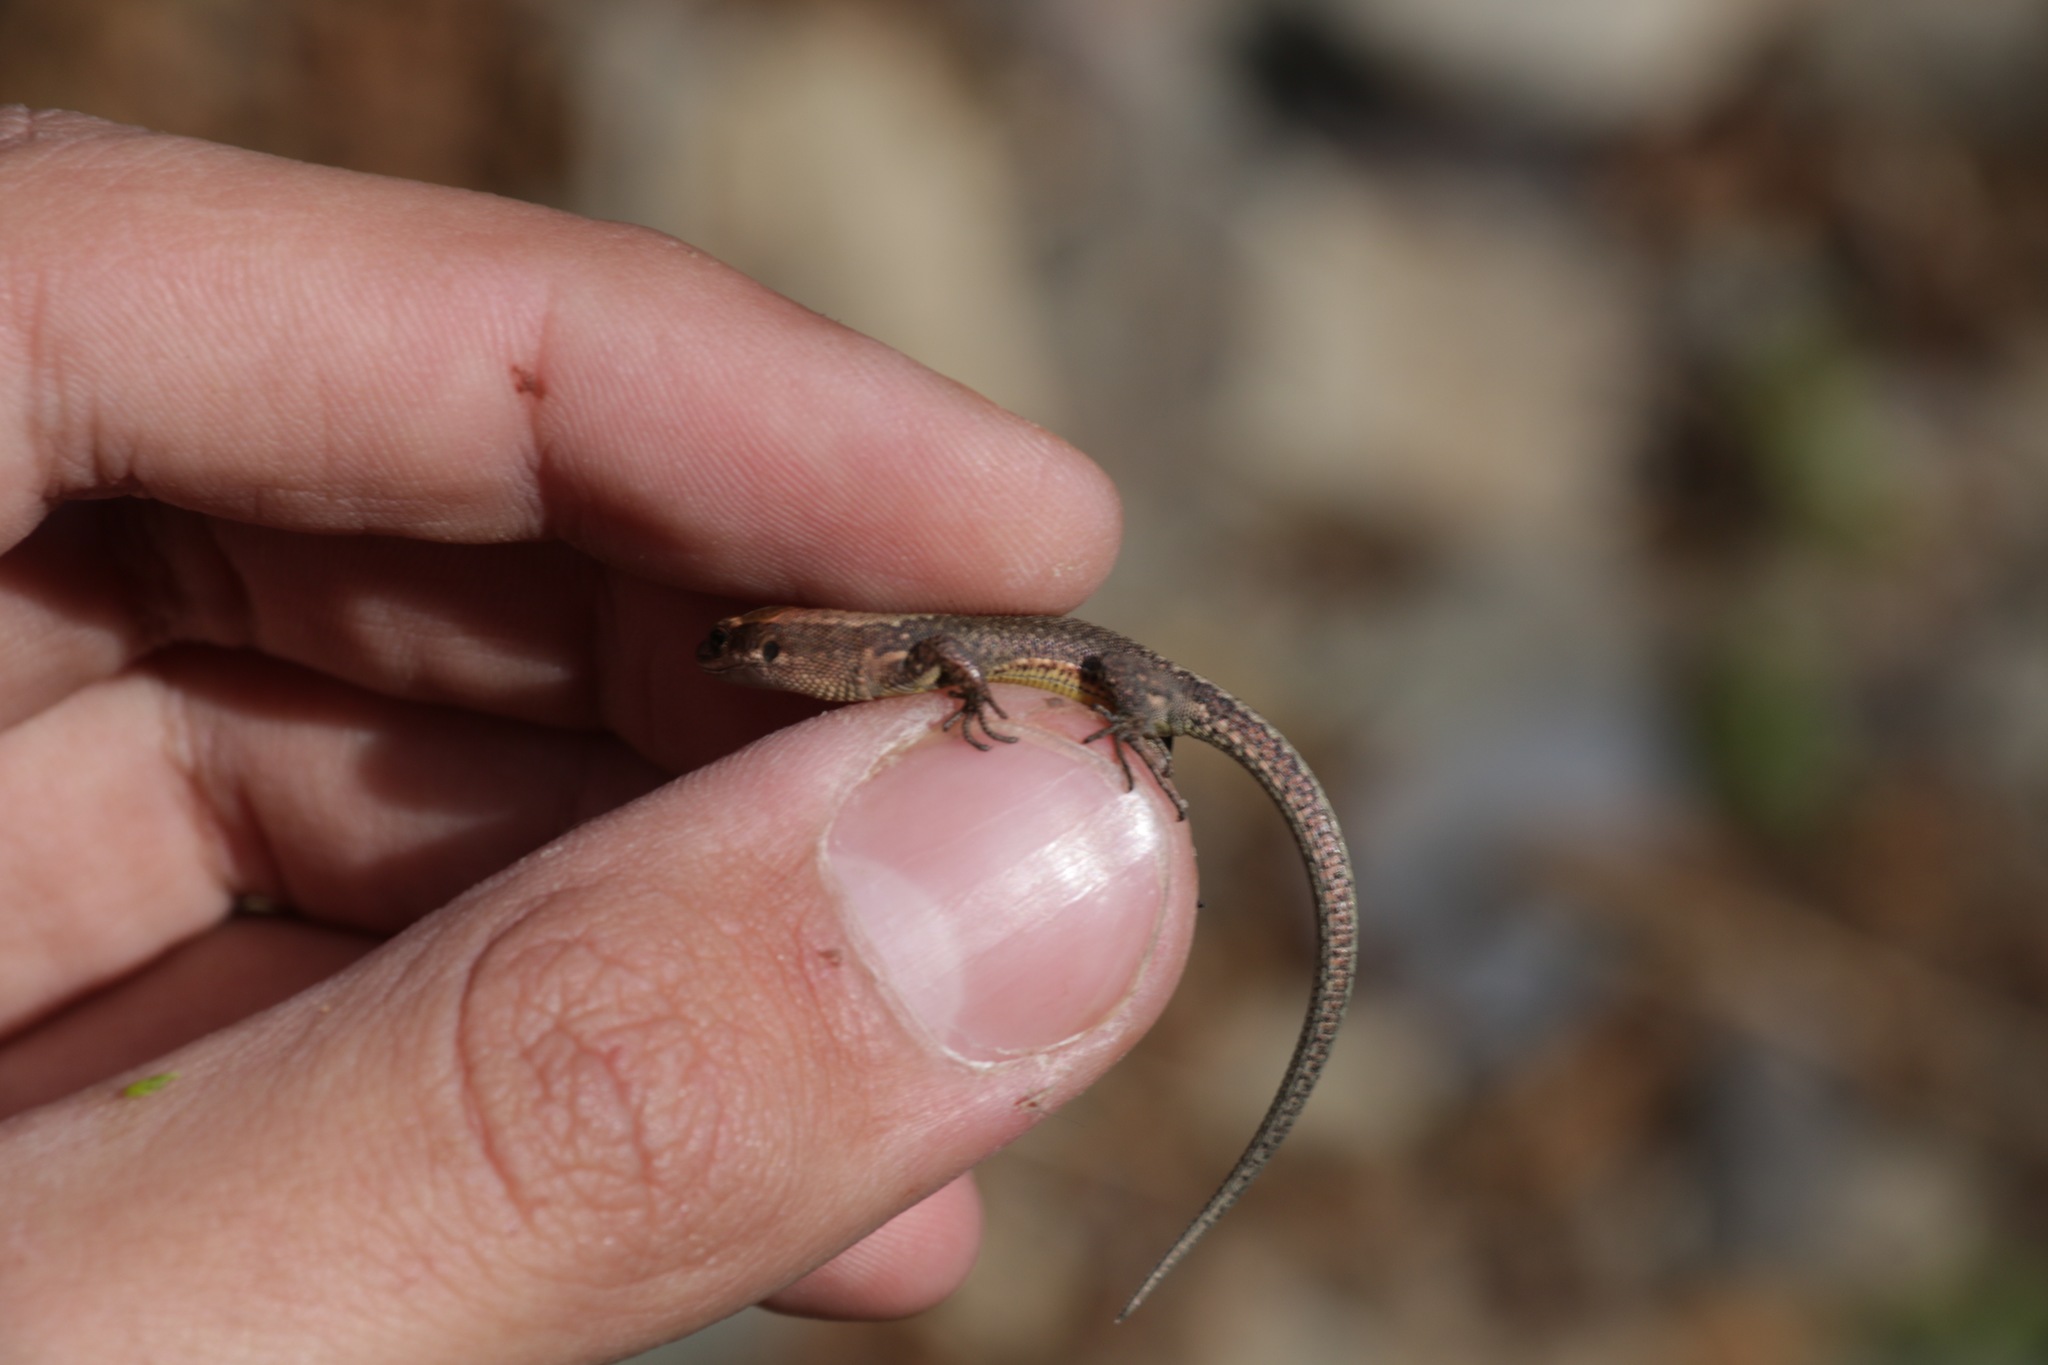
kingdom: Animalia
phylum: Chordata
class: Squamata
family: Lacertidae
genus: Darevskia
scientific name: Darevskia derjugini
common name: Derjugin's lizard
